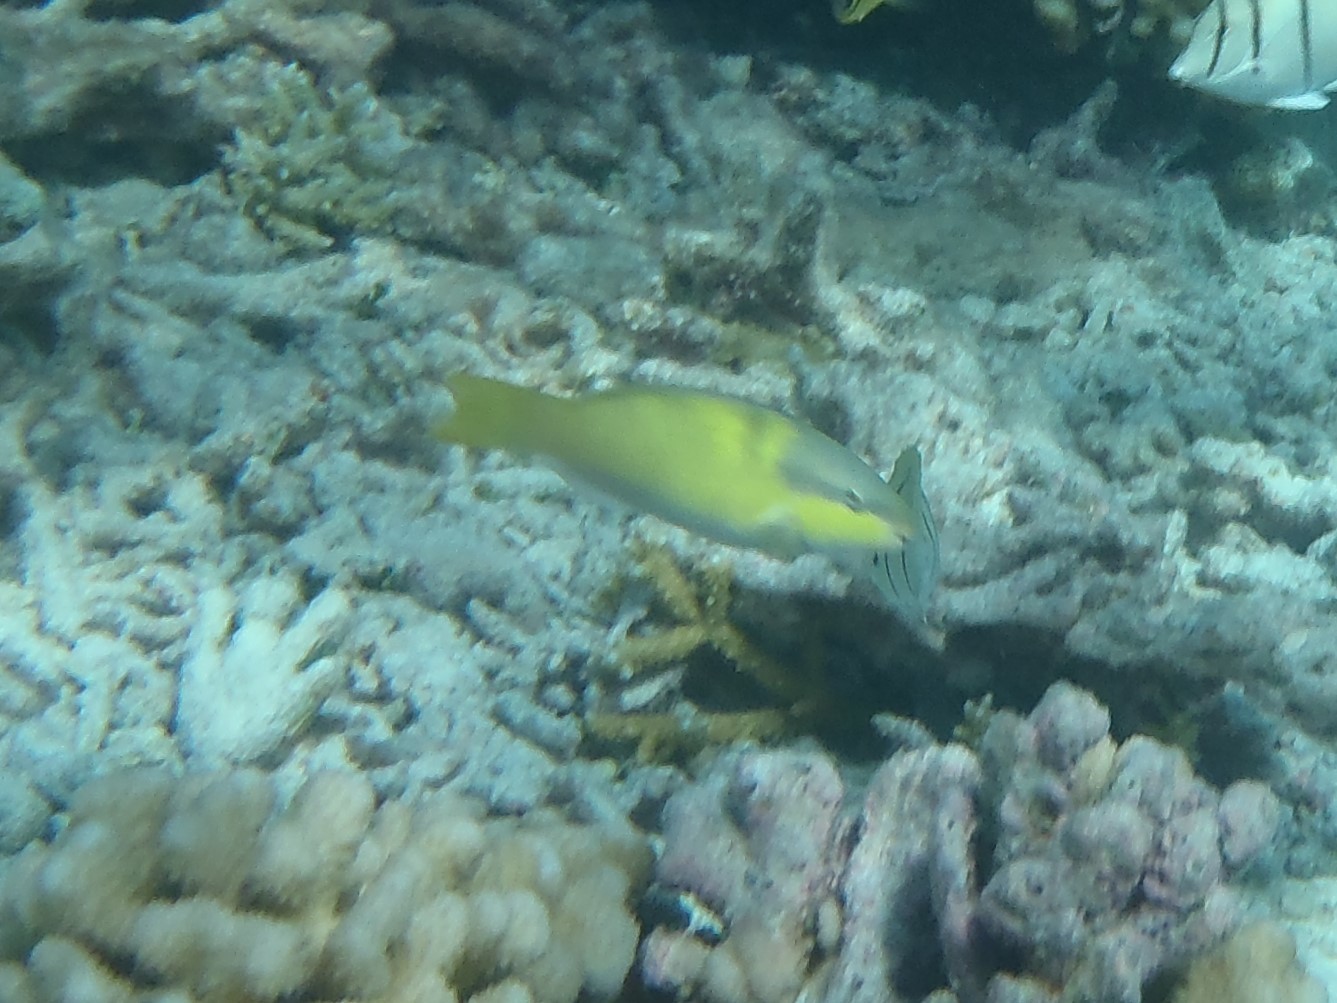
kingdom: Animalia
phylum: Chordata
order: Perciformes
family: Scaridae
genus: Scarus
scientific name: Scarus oviceps
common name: Blue parrotfish
